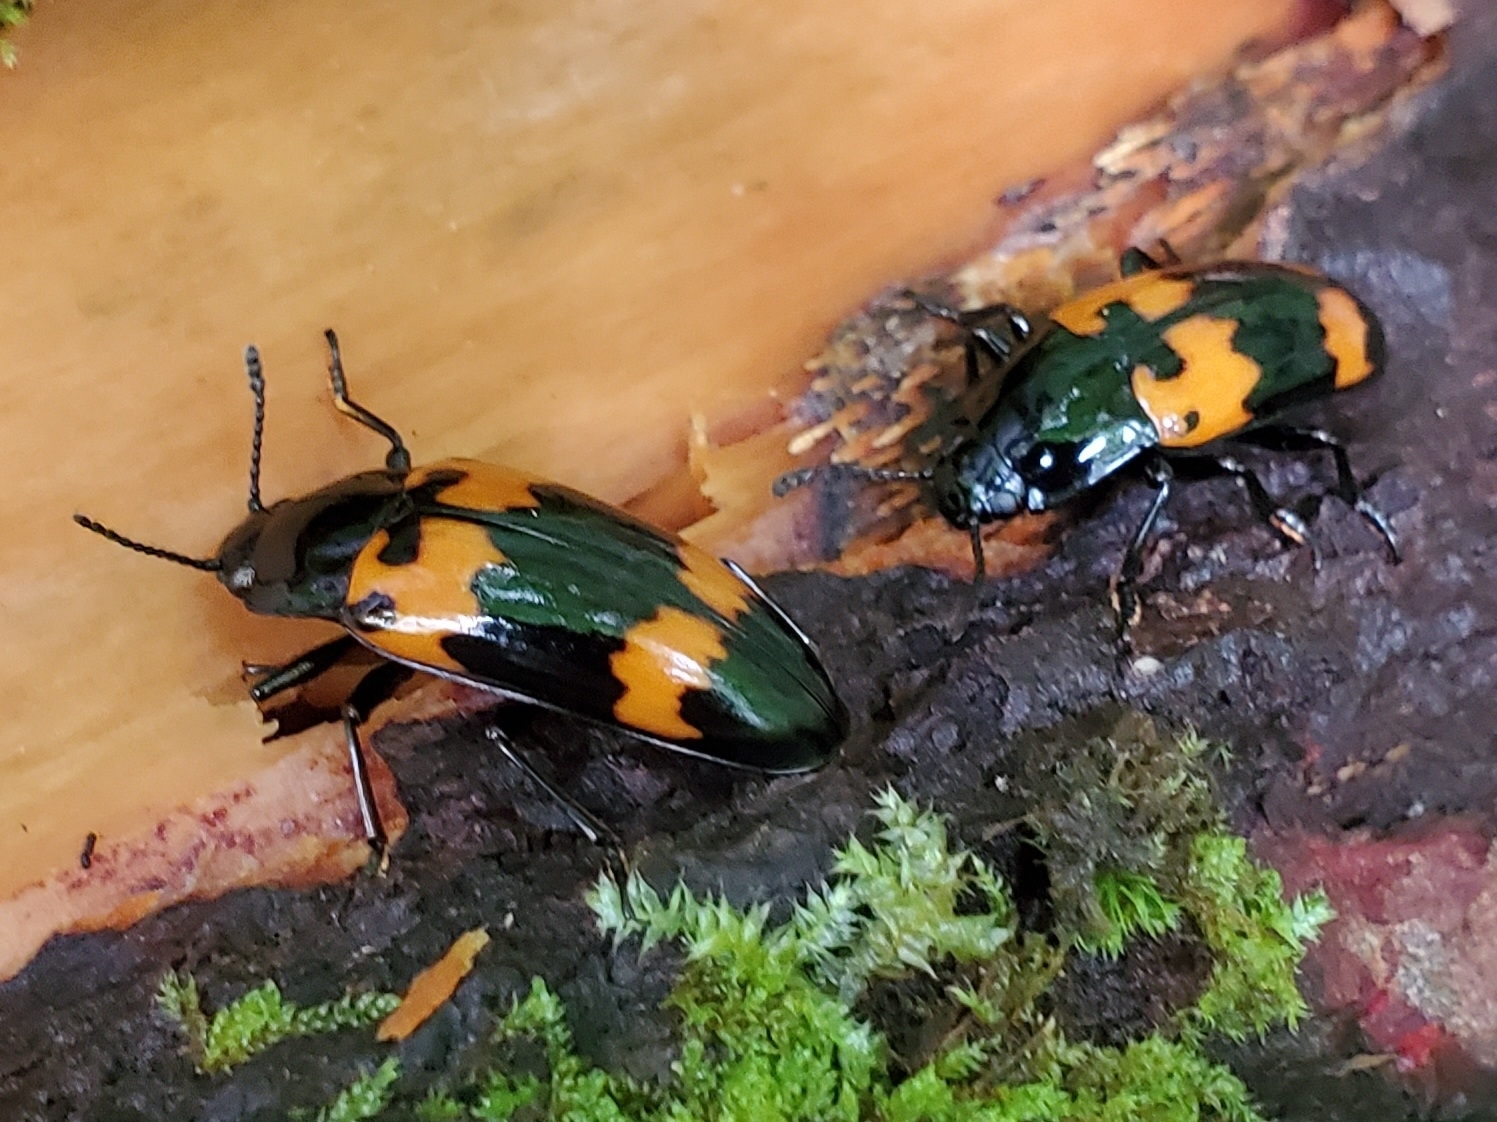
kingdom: Animalia
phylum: Arthropoda
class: Insecta
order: Coleoptera
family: Erotylidae
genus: Megalodacne
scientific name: Megalodacne heros
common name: Pleasing fungus beetle
